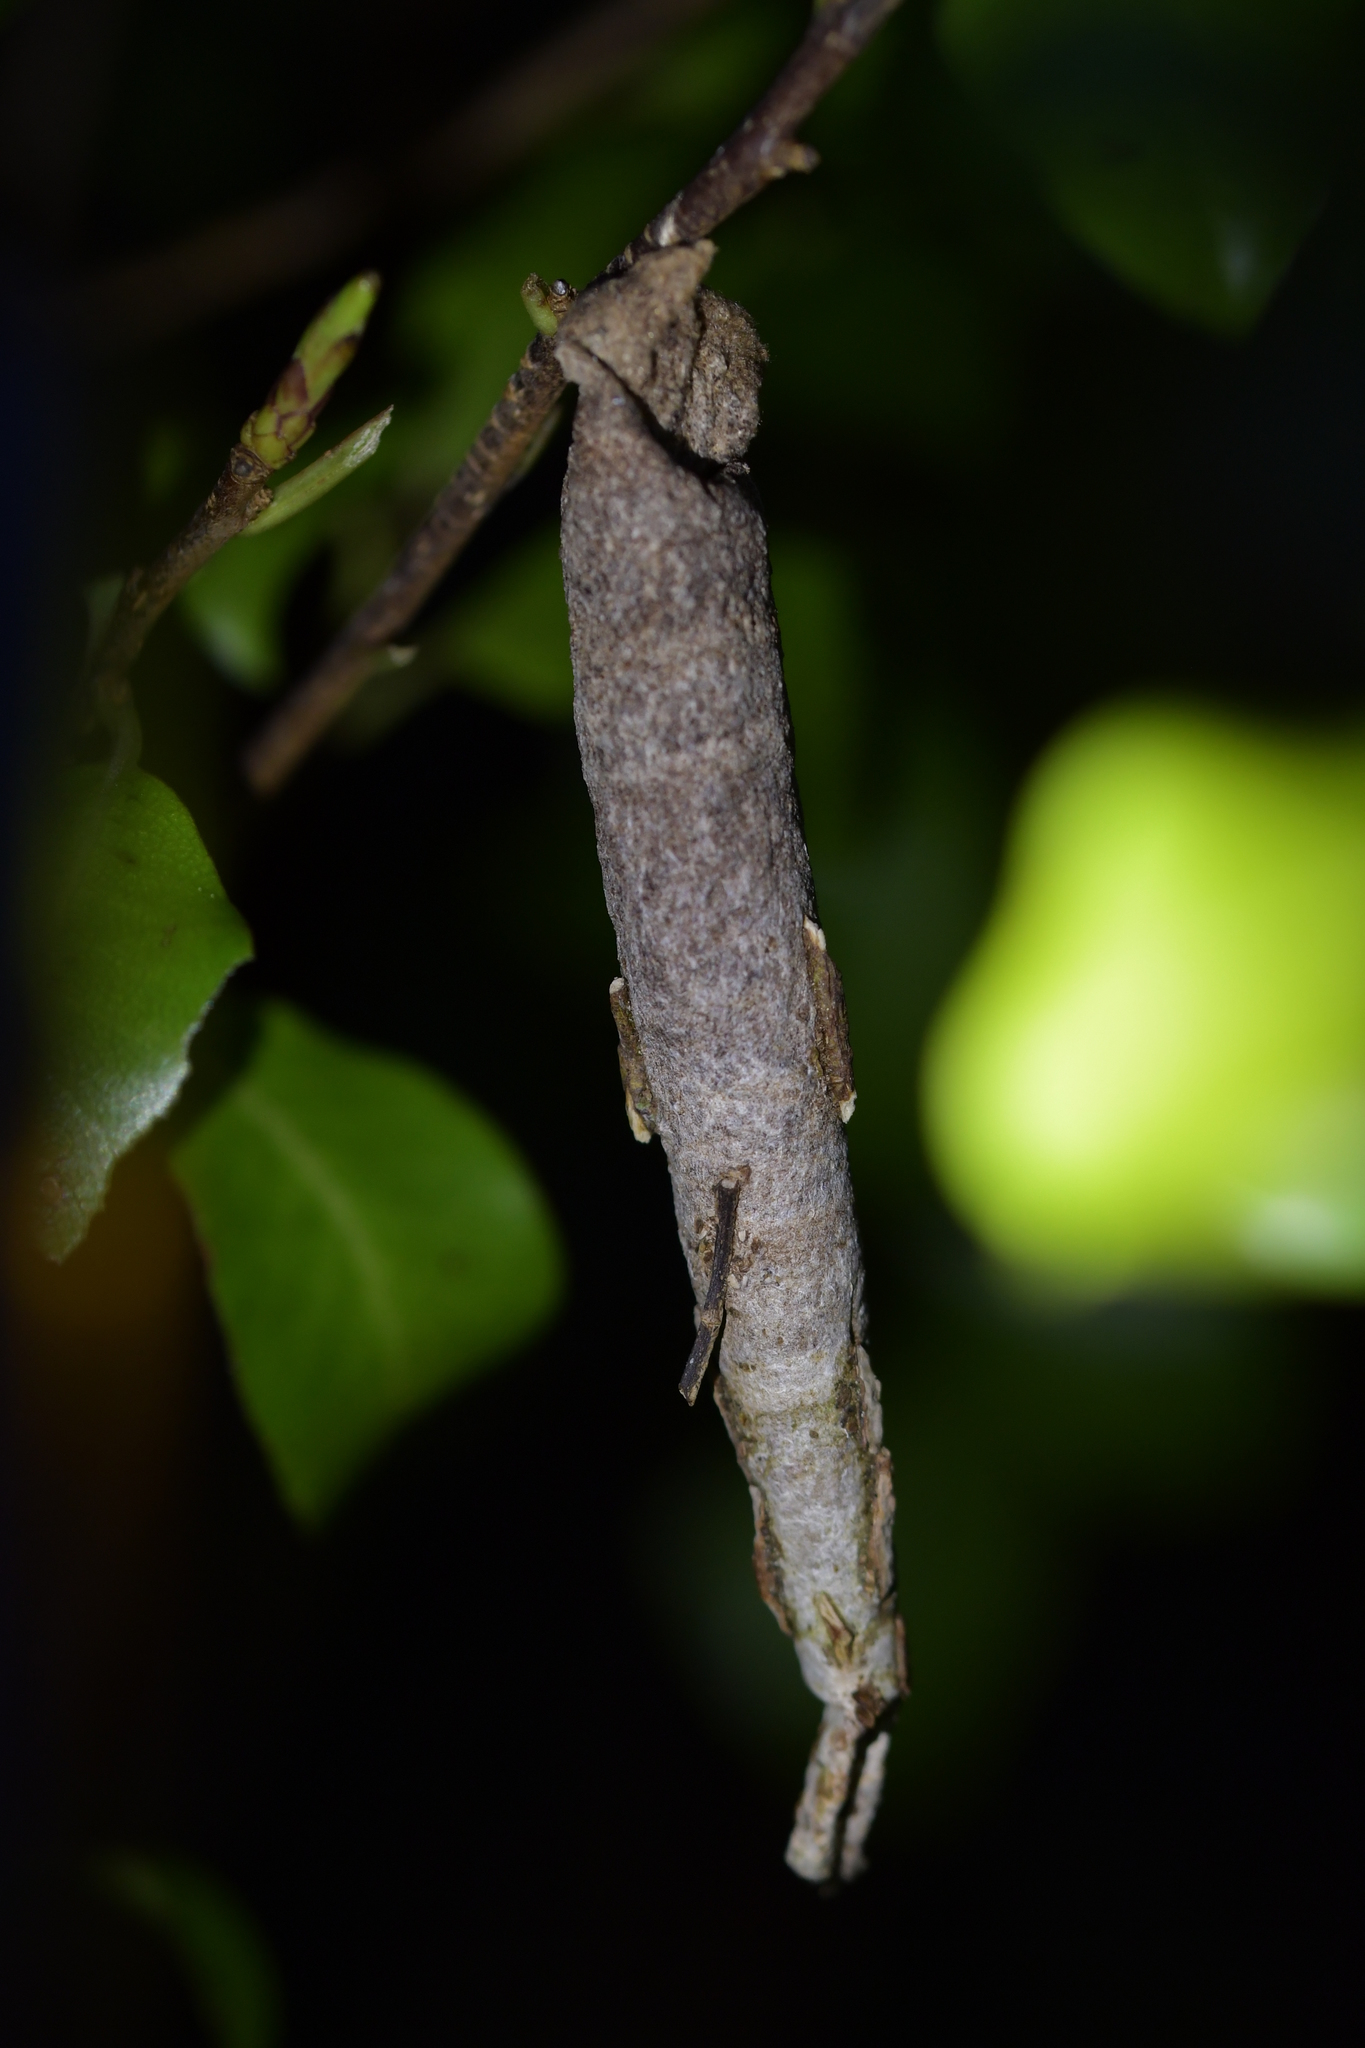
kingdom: Animalia
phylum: Arthropoda
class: Insecta
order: Lepidoptera
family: Psychidae
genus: Liothula
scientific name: Liothula omnivora
